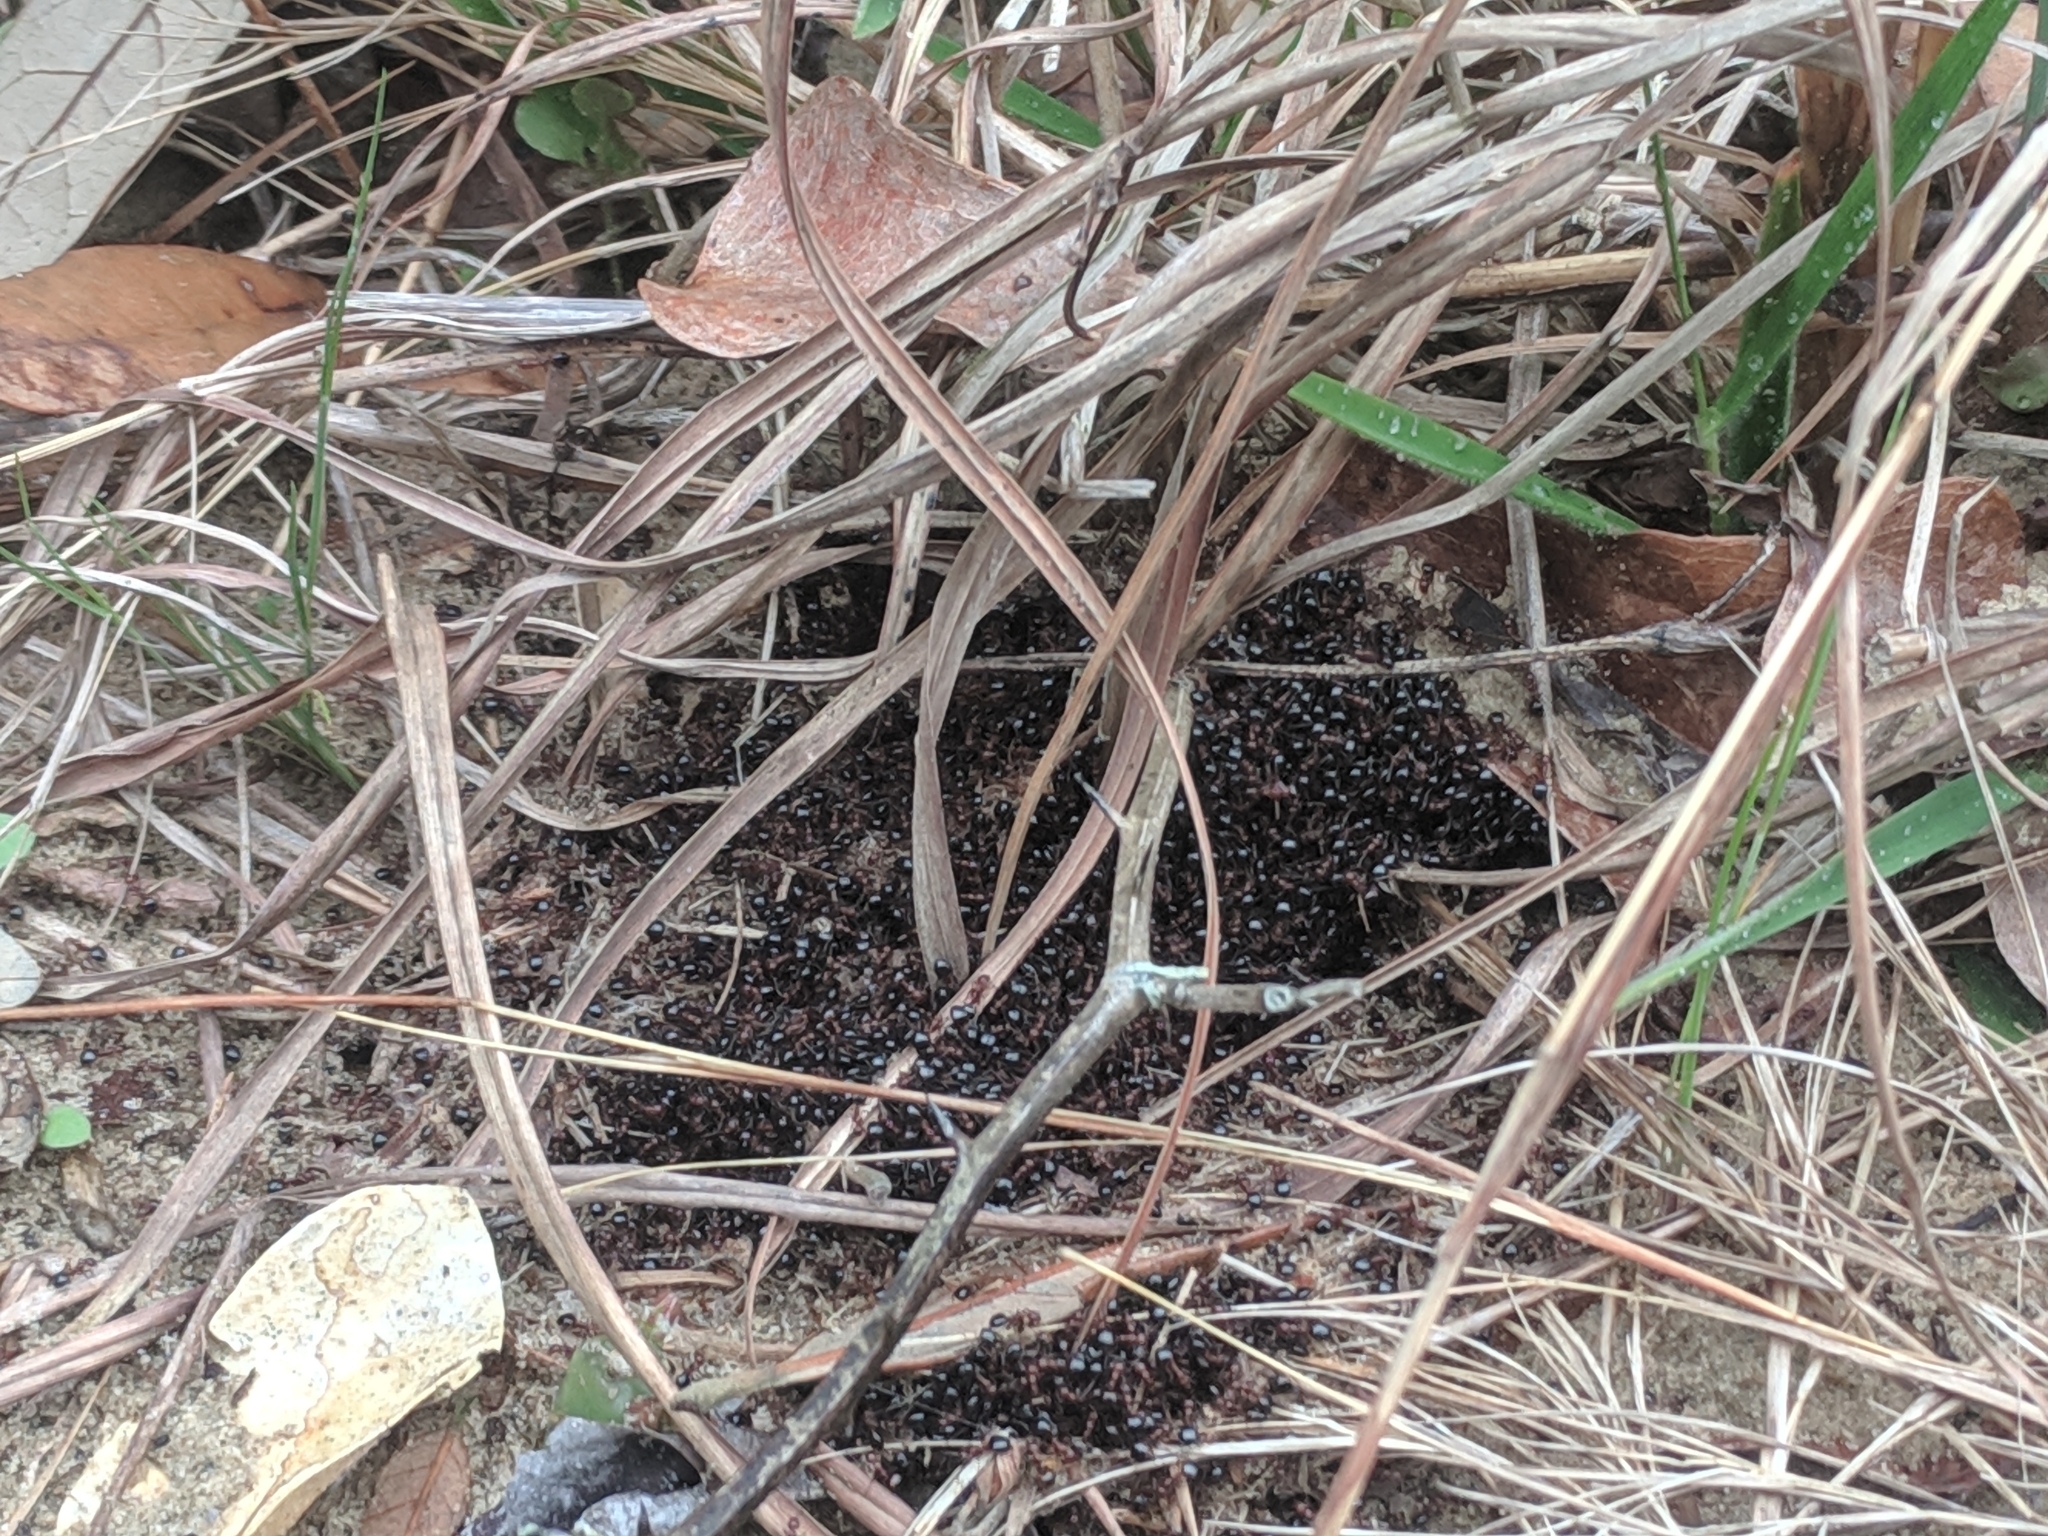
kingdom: Animalia
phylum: Arthropoda
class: Insecta
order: Hymenoptera
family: Formicidae
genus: Dolichoderus
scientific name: Dolichoderus mariae
